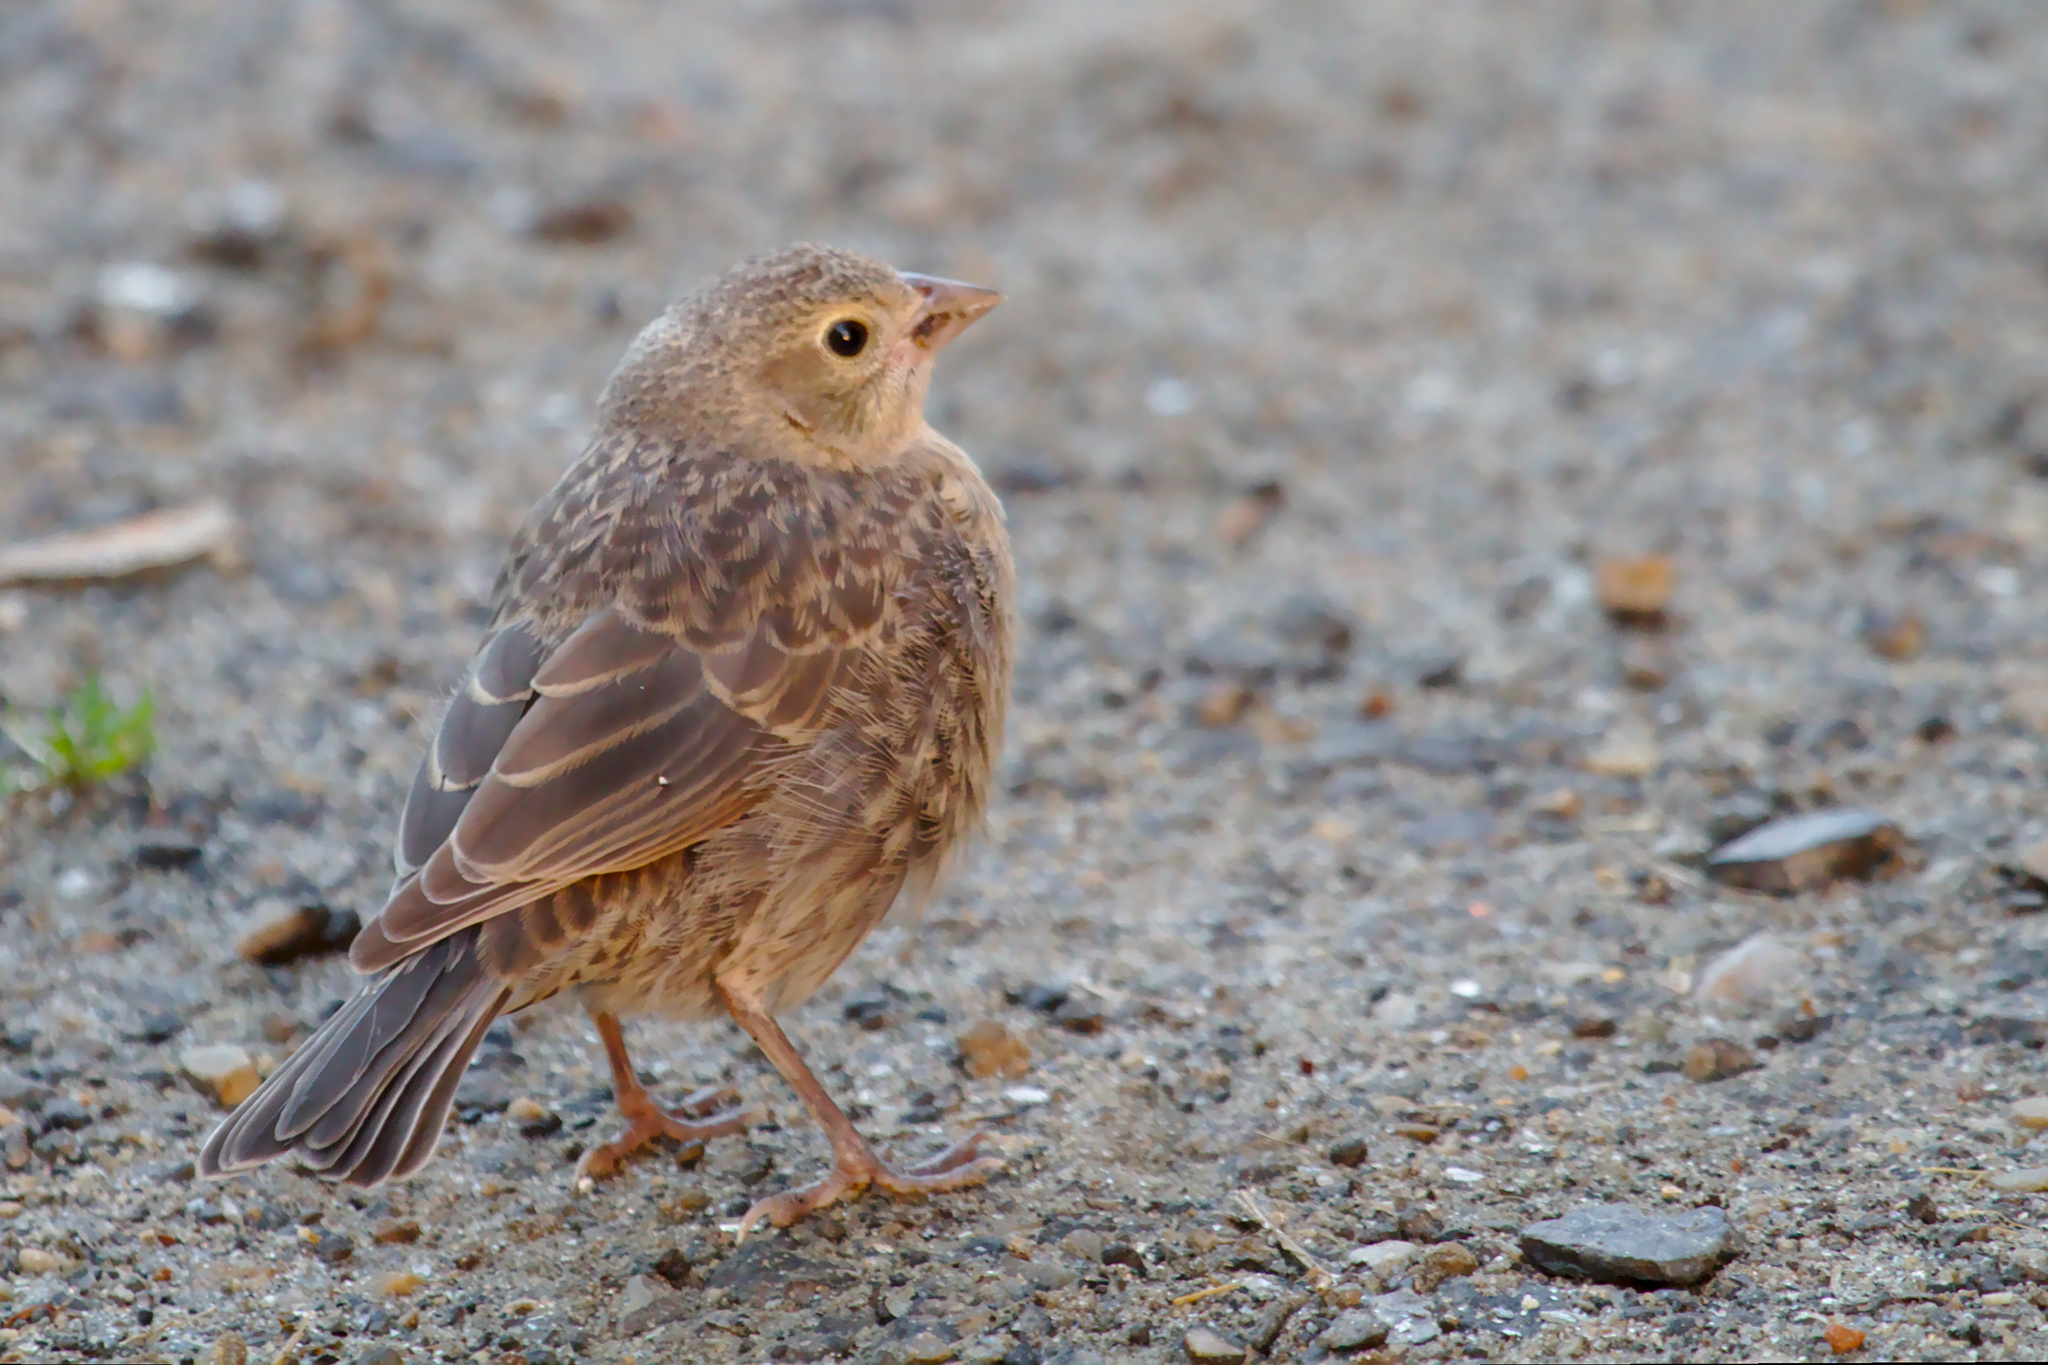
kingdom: Animalia
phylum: Chordata
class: Aves
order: Passeriformes
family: Icteridae
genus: Molothrus
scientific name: Molothrus ater
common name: Brown-headed cowbird
